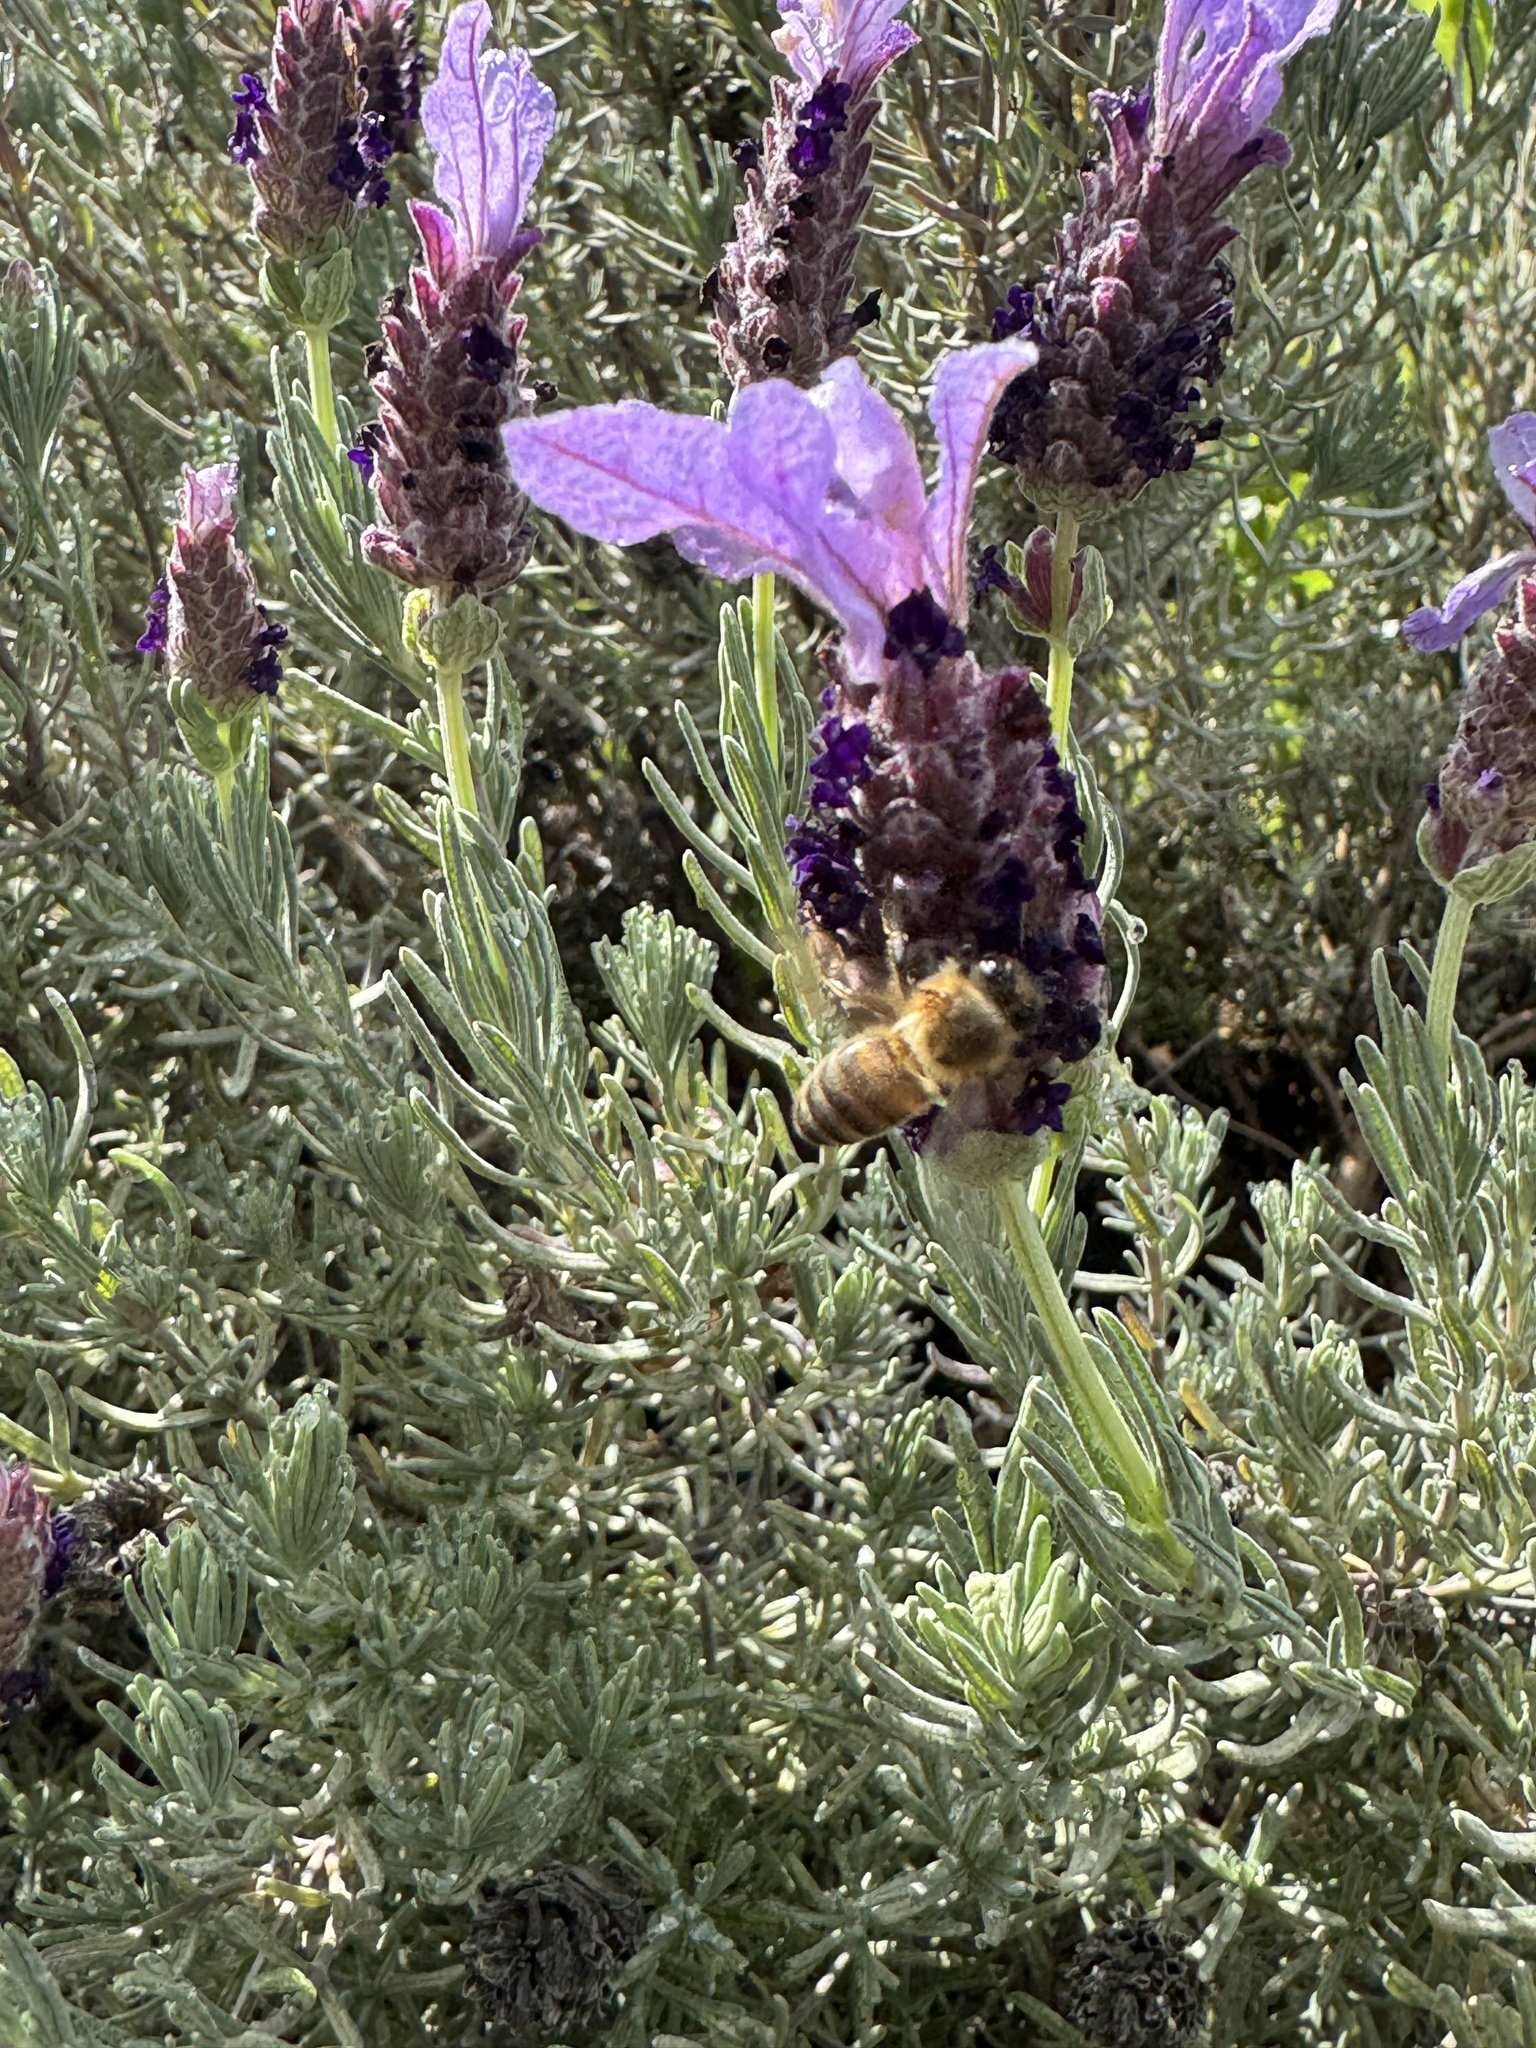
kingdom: Animalia
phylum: Arthropoda
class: Insecta
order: Hymenoptera
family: Apidae
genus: Apis
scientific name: Apis mellifera
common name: Honey bee
